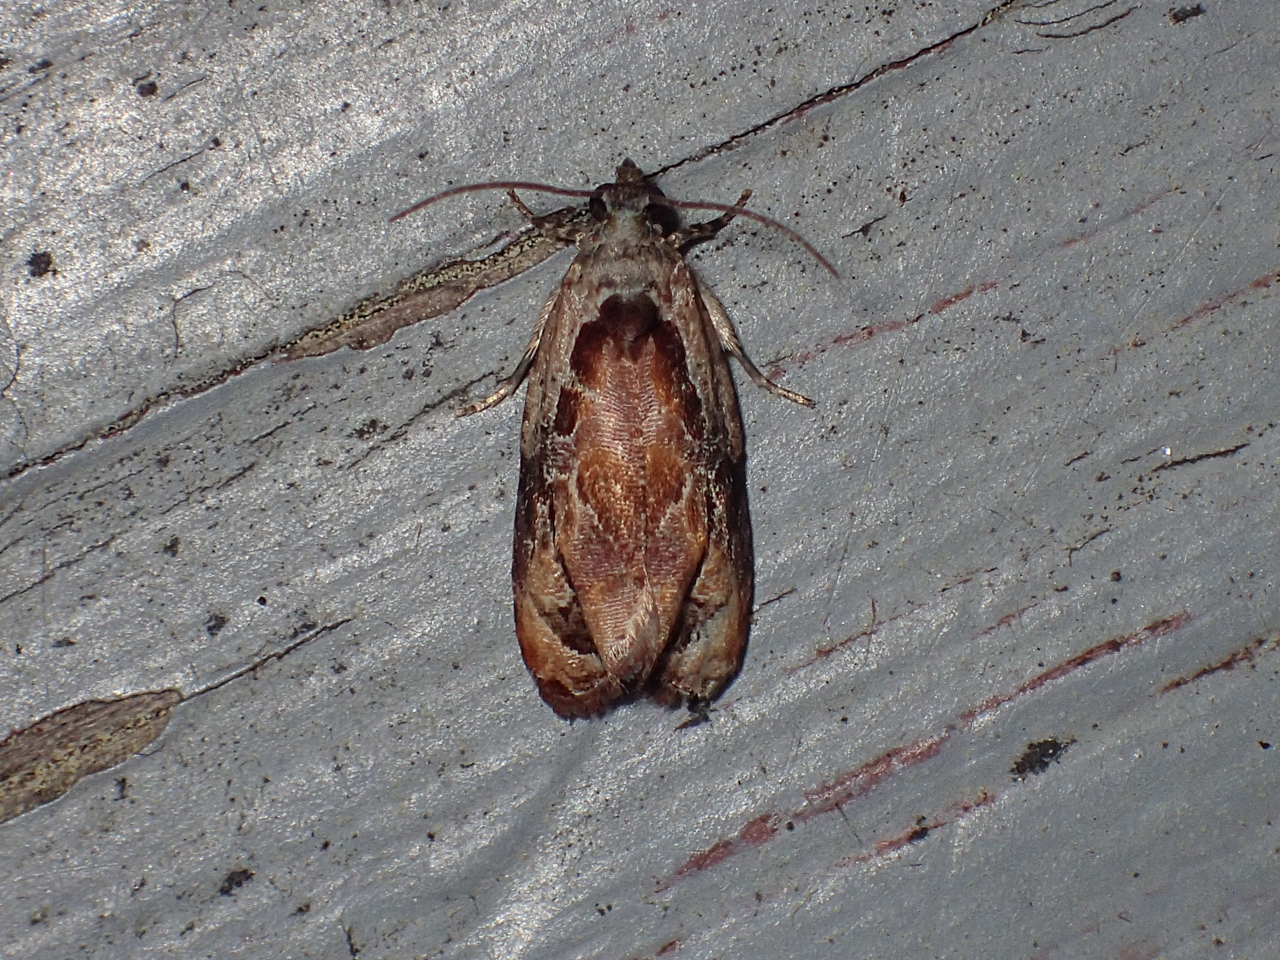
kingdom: Animalia
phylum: Arthropoda
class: Insecta
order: Lepidoptera
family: Tortricidae
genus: Zomaria
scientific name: Zomaria interruptolineana
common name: Broken-lined zomaria moth
